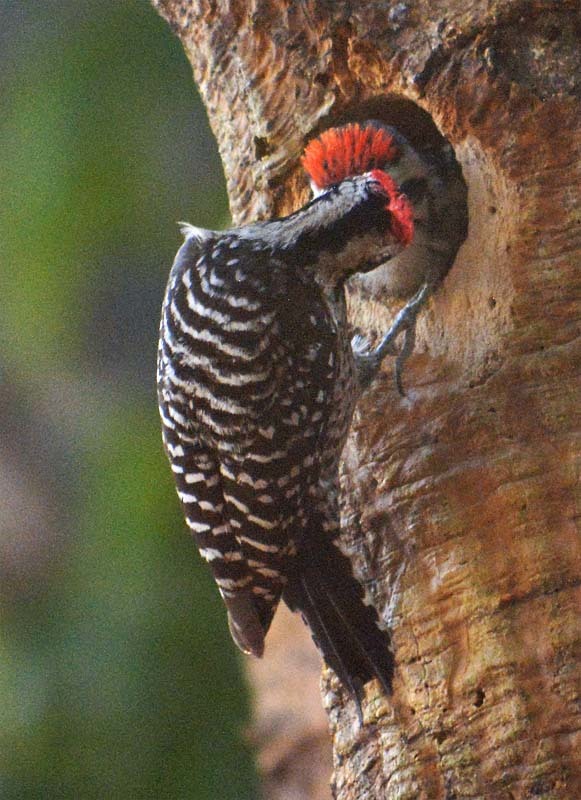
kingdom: Animalia
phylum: Chordata
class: Aves
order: Piciformes
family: Picidae
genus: Dryobates
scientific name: Dryobates scalaris
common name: Ladder-backed woodpecker
